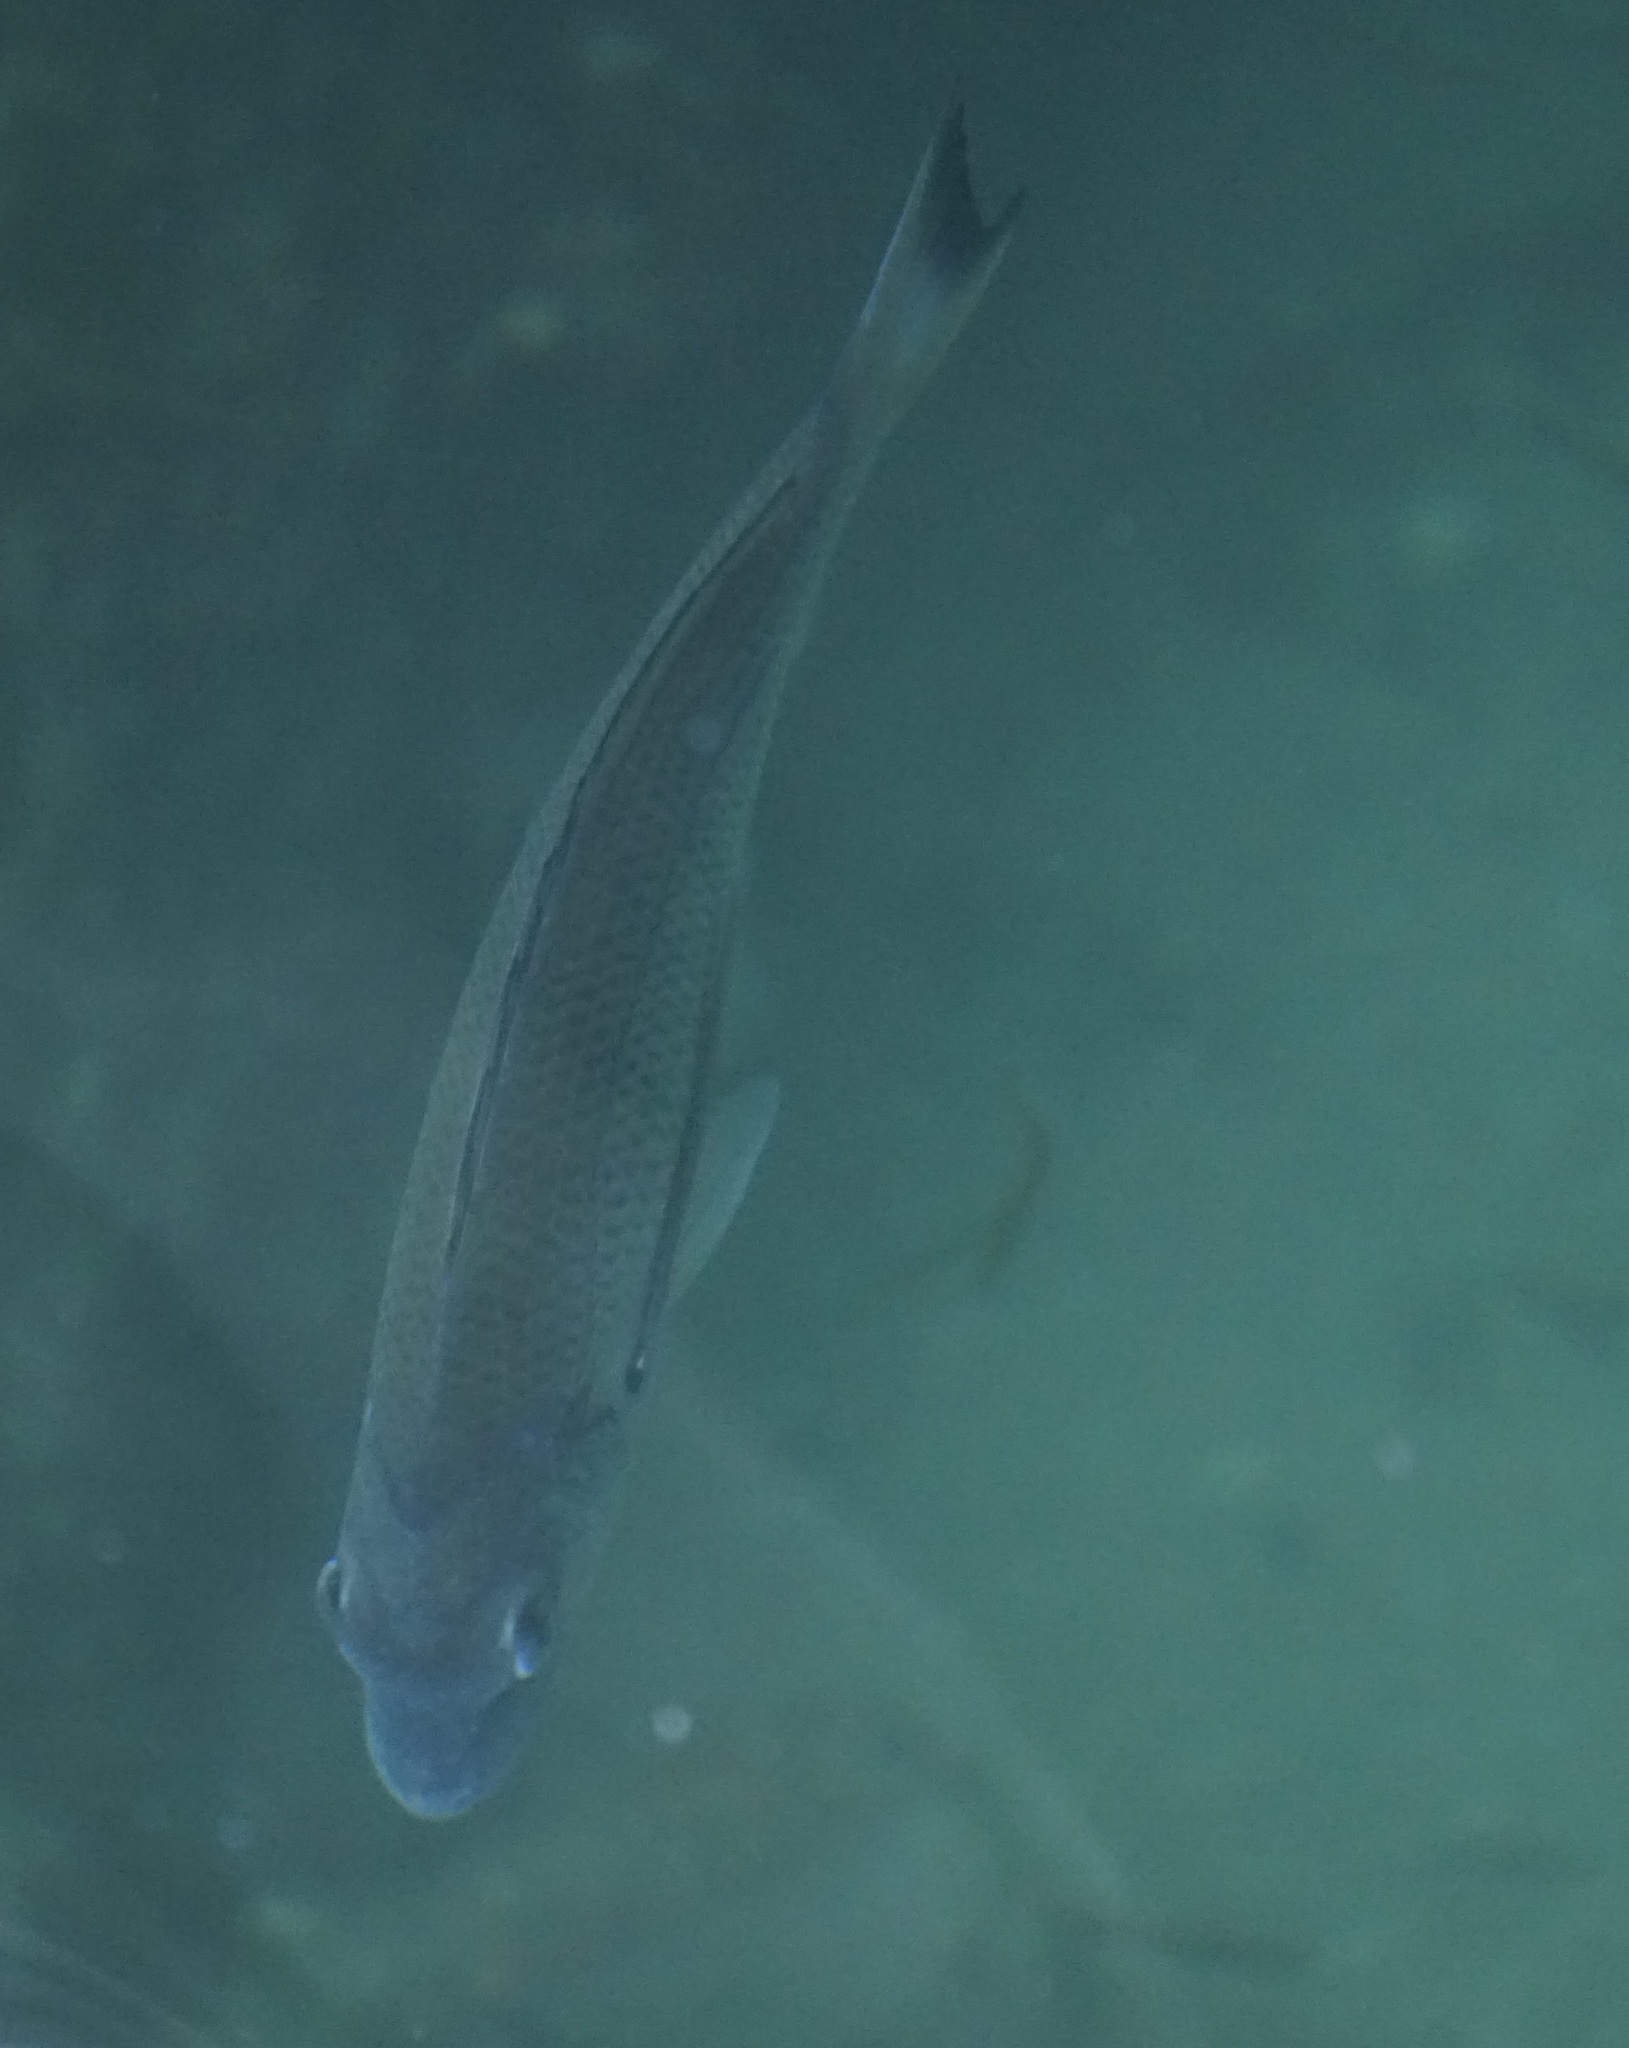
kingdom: Animalia
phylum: Chordata
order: Perciformes
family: Sparidae
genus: Acanthopagrus
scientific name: Acanthopagrus australis
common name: Surf bream
